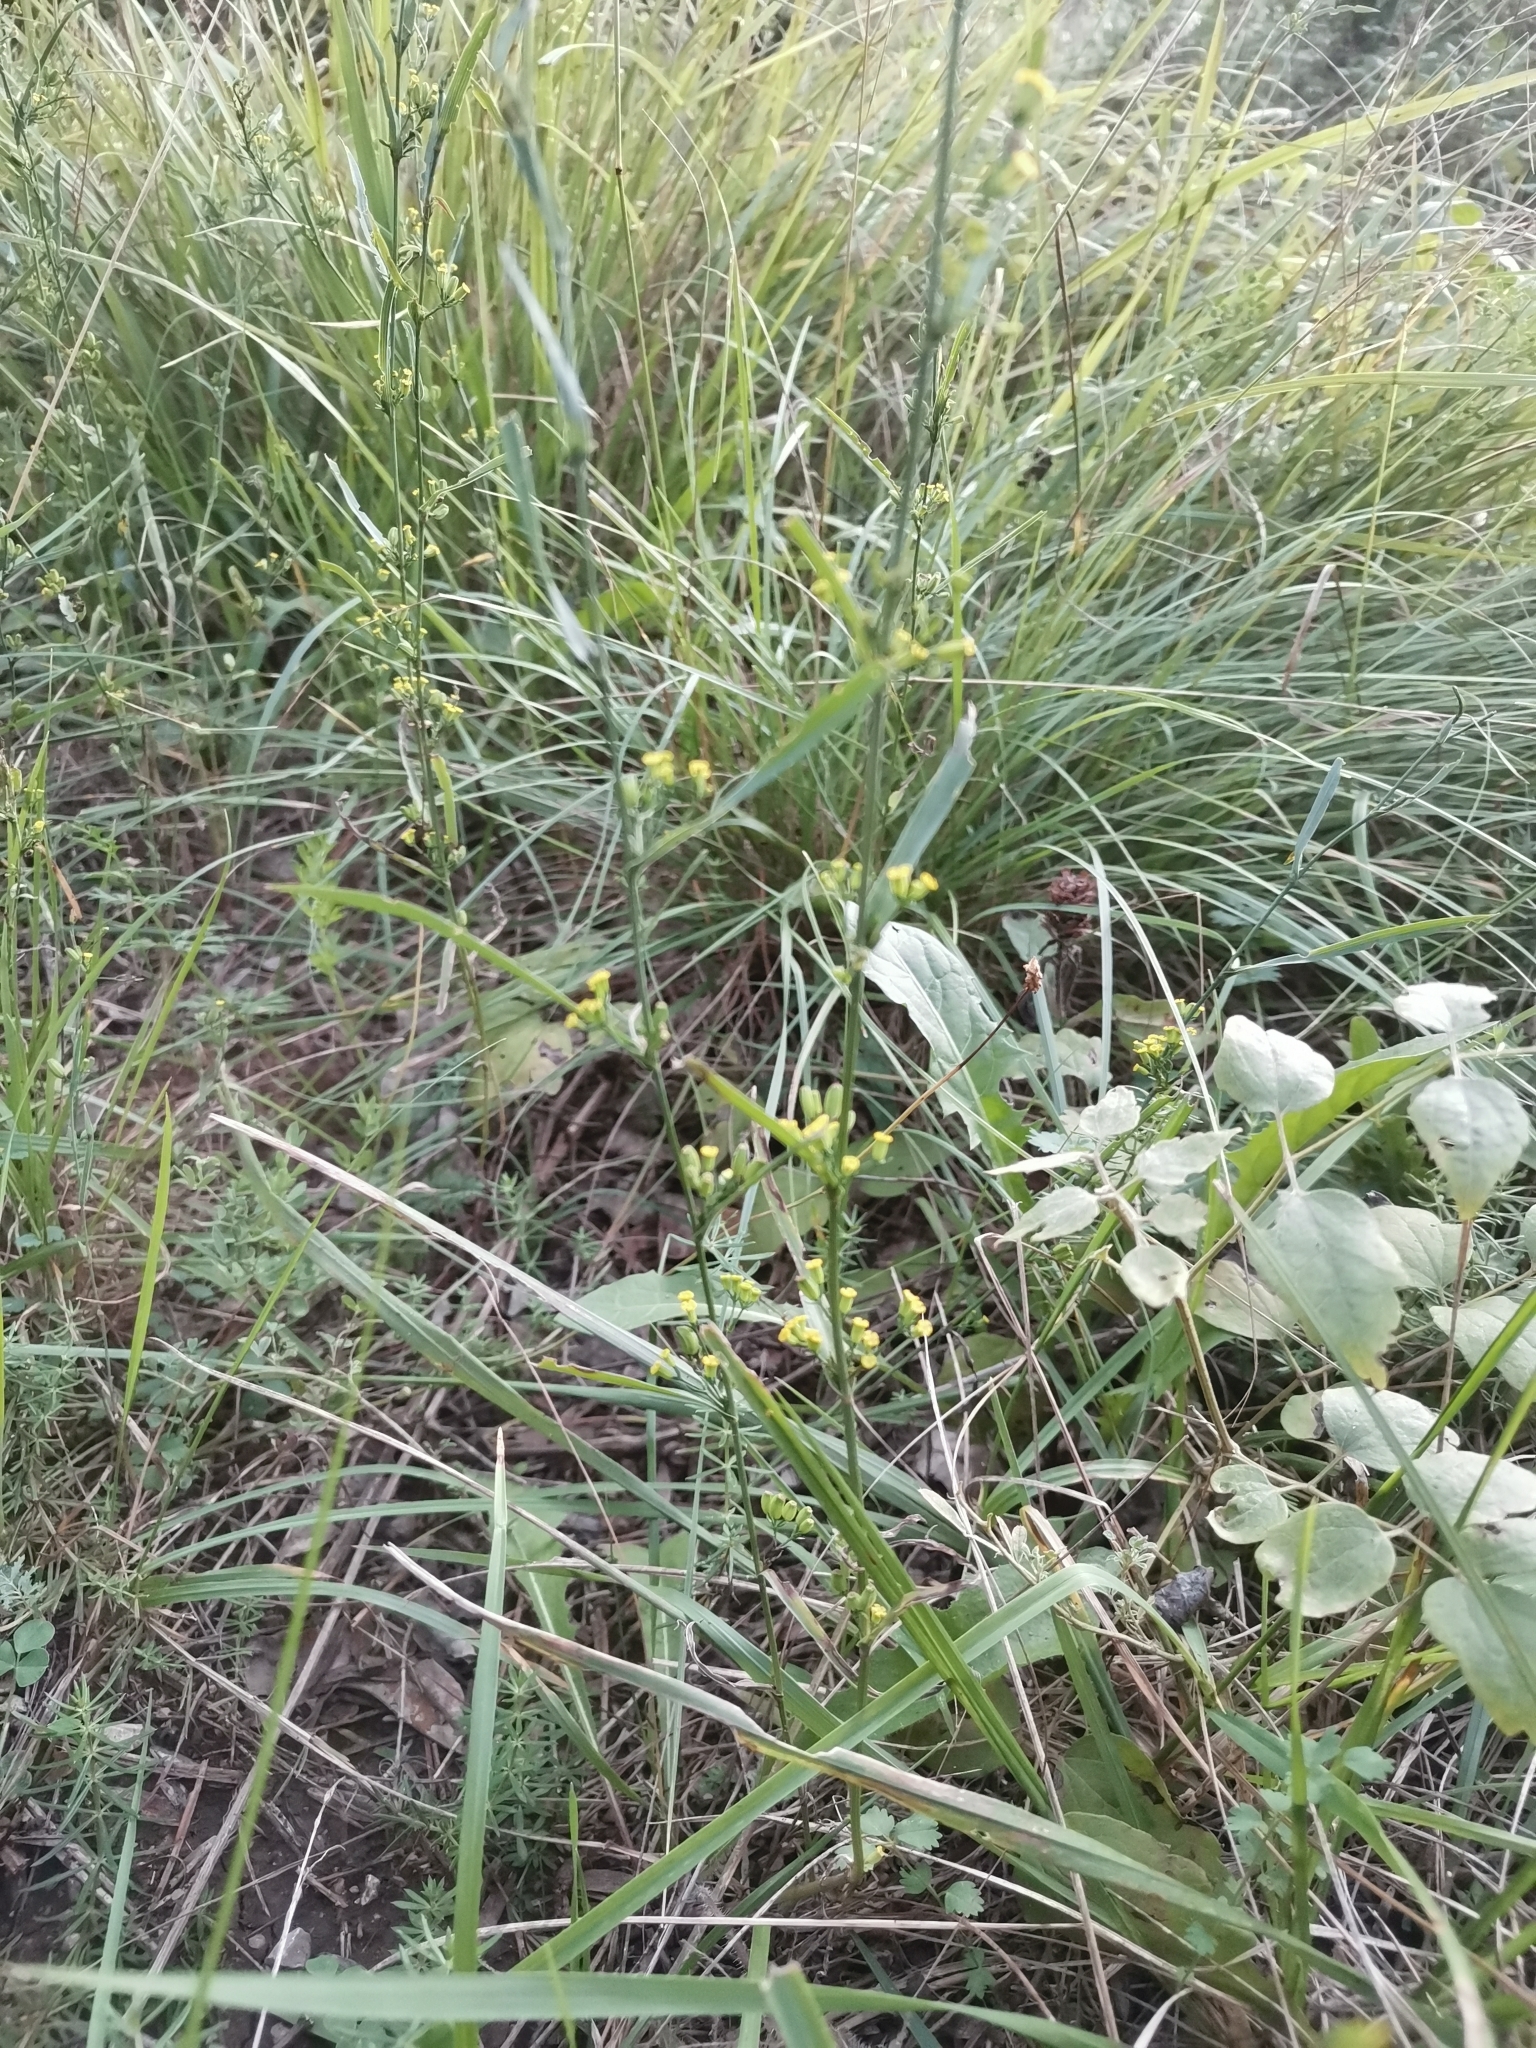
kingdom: Plantae
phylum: Tracheophyta
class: Magnoliopsida
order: Apiales
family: Apiaceae
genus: Bupleurum
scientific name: Bupleurum praealtum
